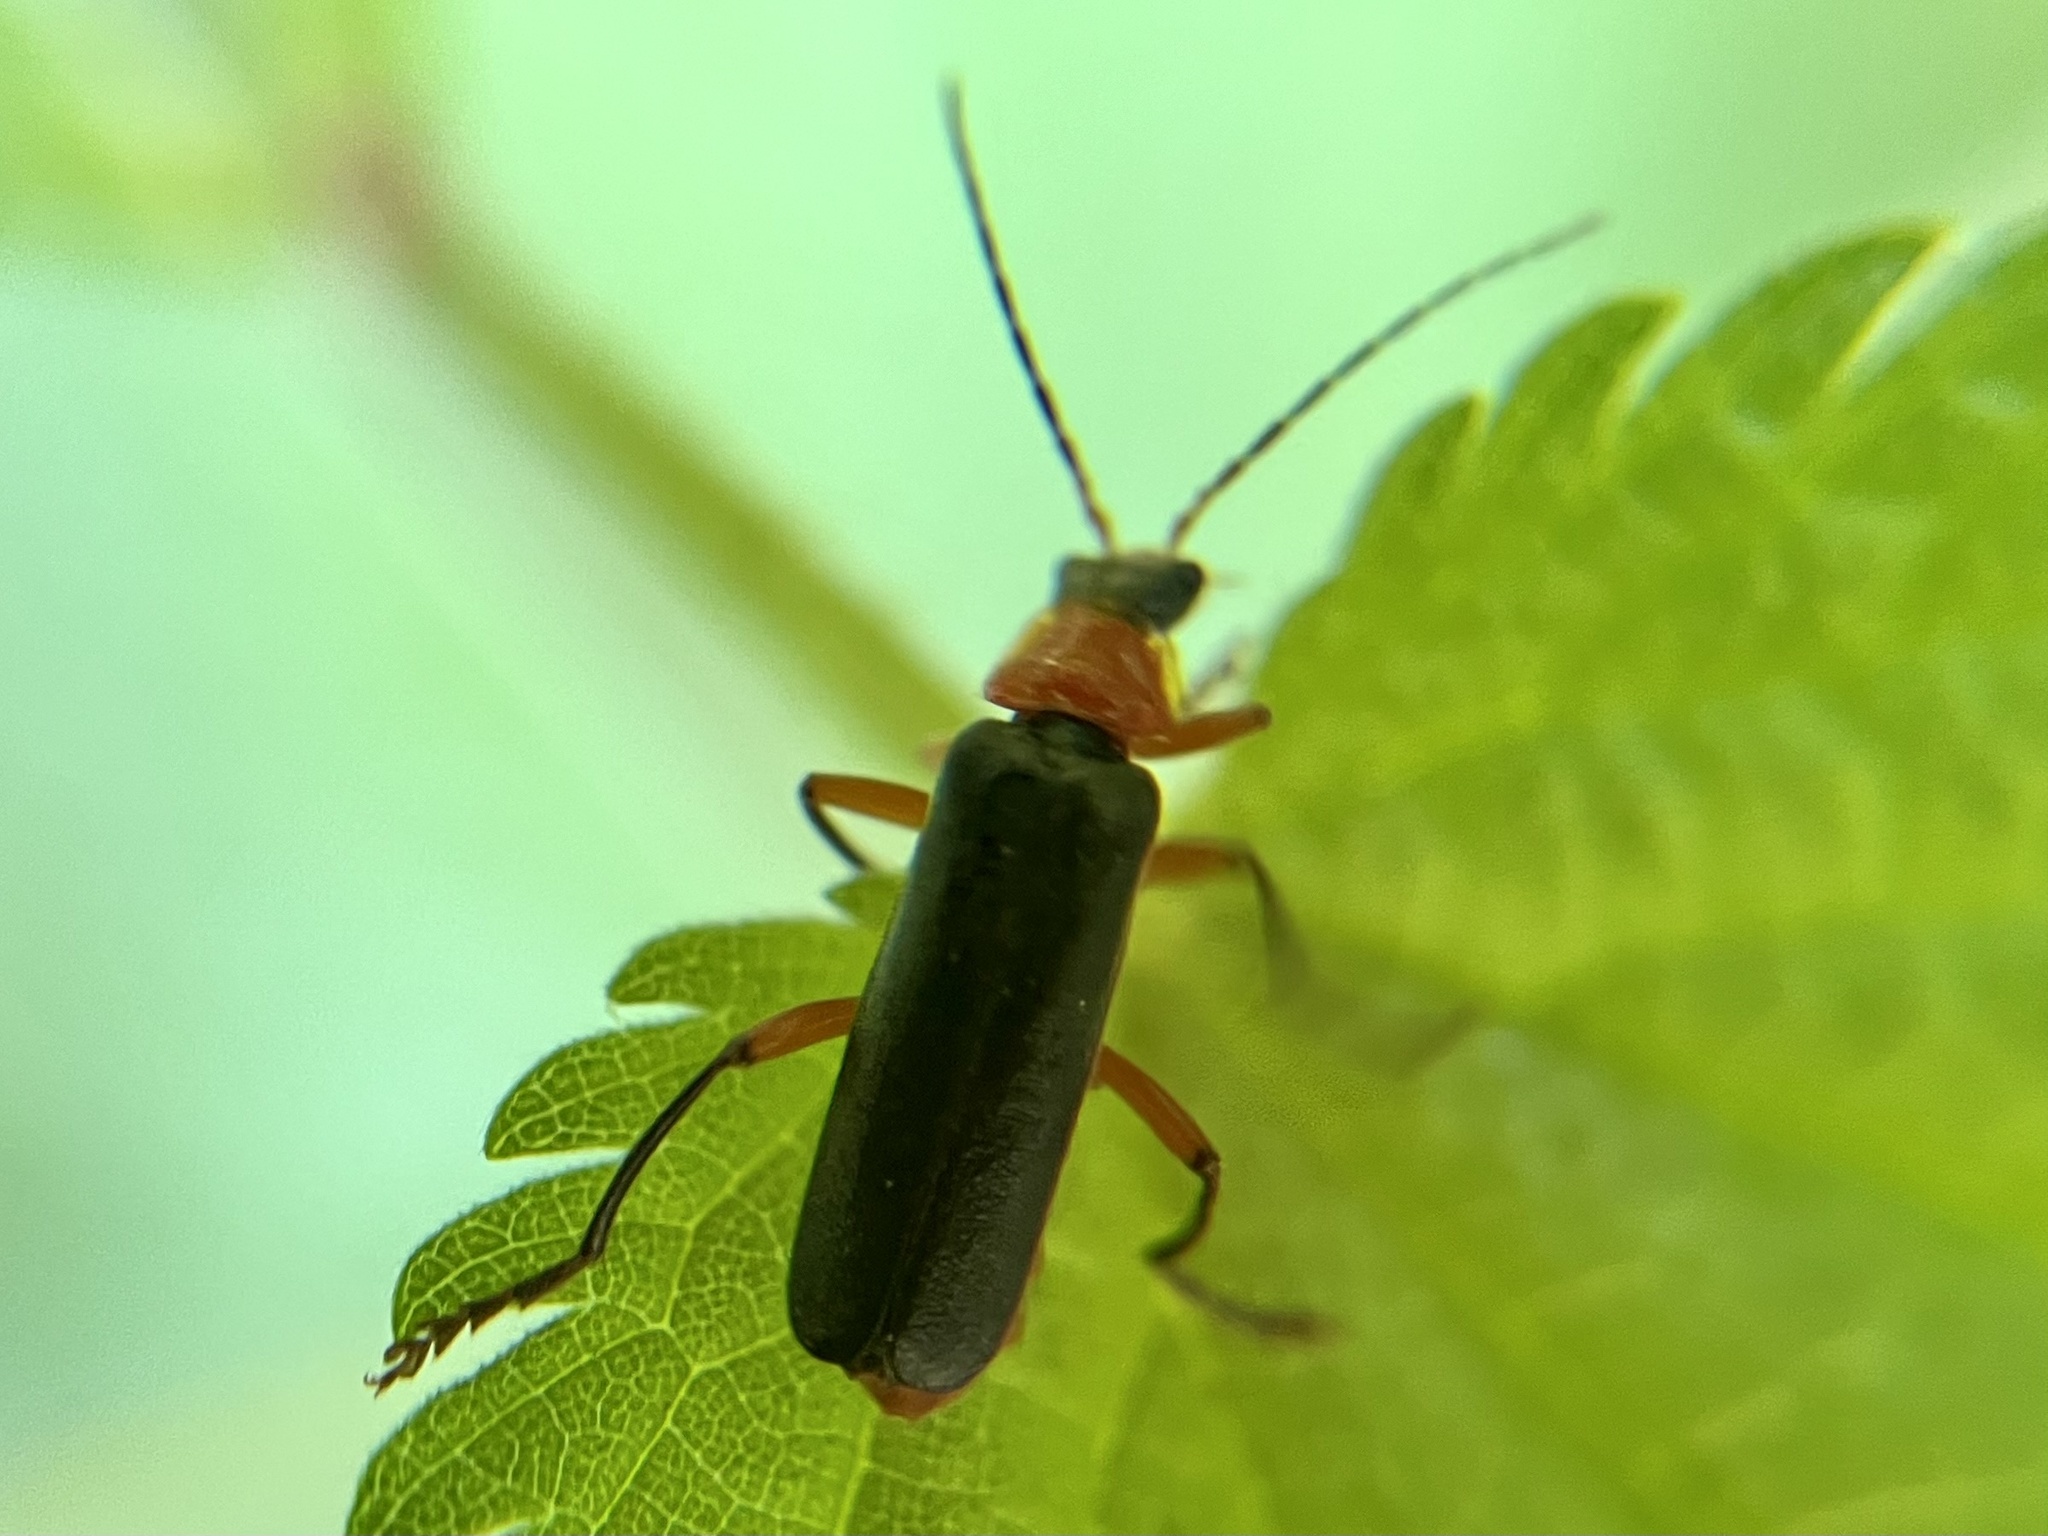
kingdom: Animalia
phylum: Arthropoda
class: Insecta
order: Coleoptera
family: Cantharidae
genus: Cantharis
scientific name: Cantharis pellucida
